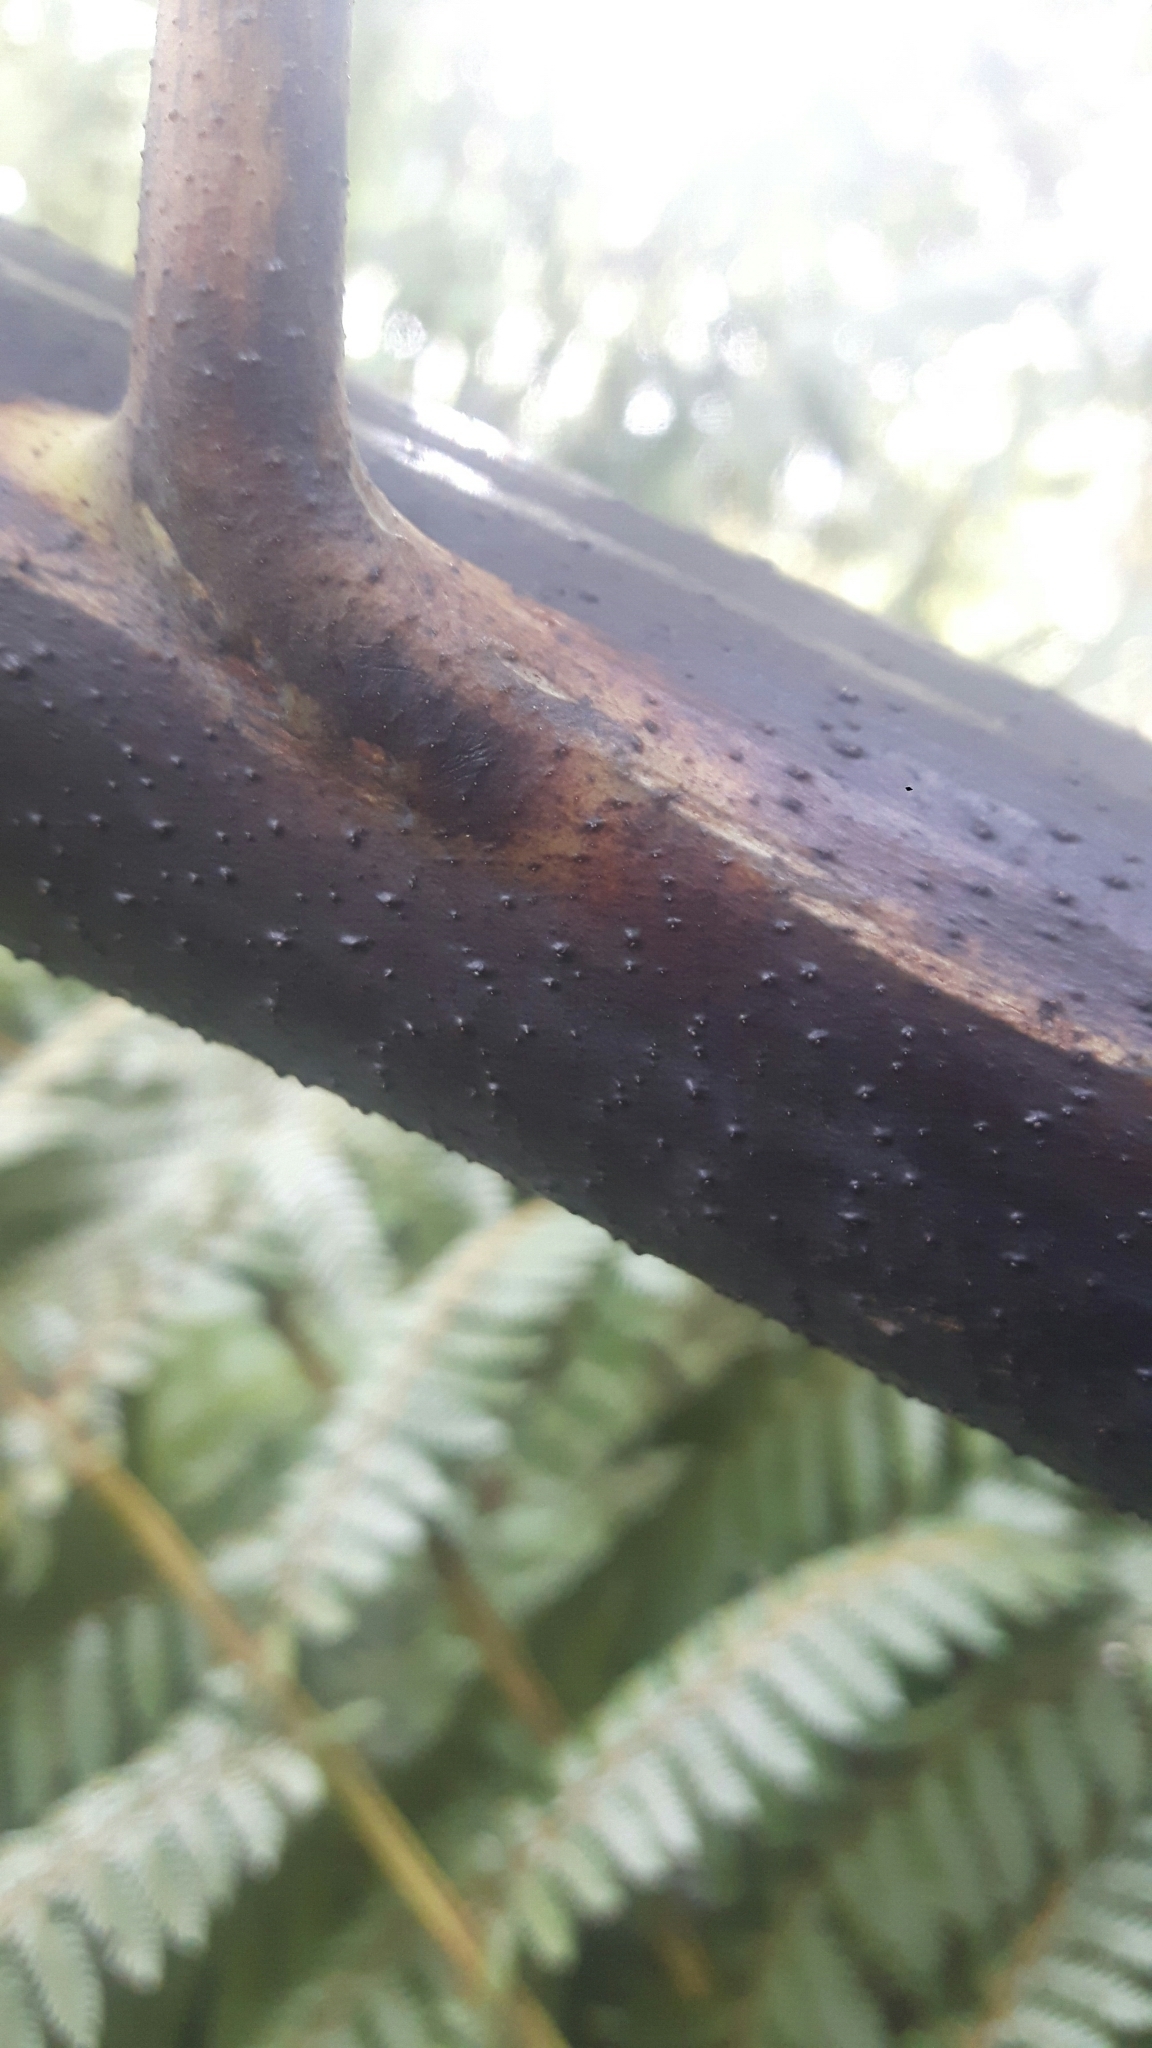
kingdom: Plantae
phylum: Tracheophyta
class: Polypodiopsida
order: Cyatheales
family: Cyatheaceae
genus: Sphaeropteris
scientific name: Sphaeropteris medullaris
